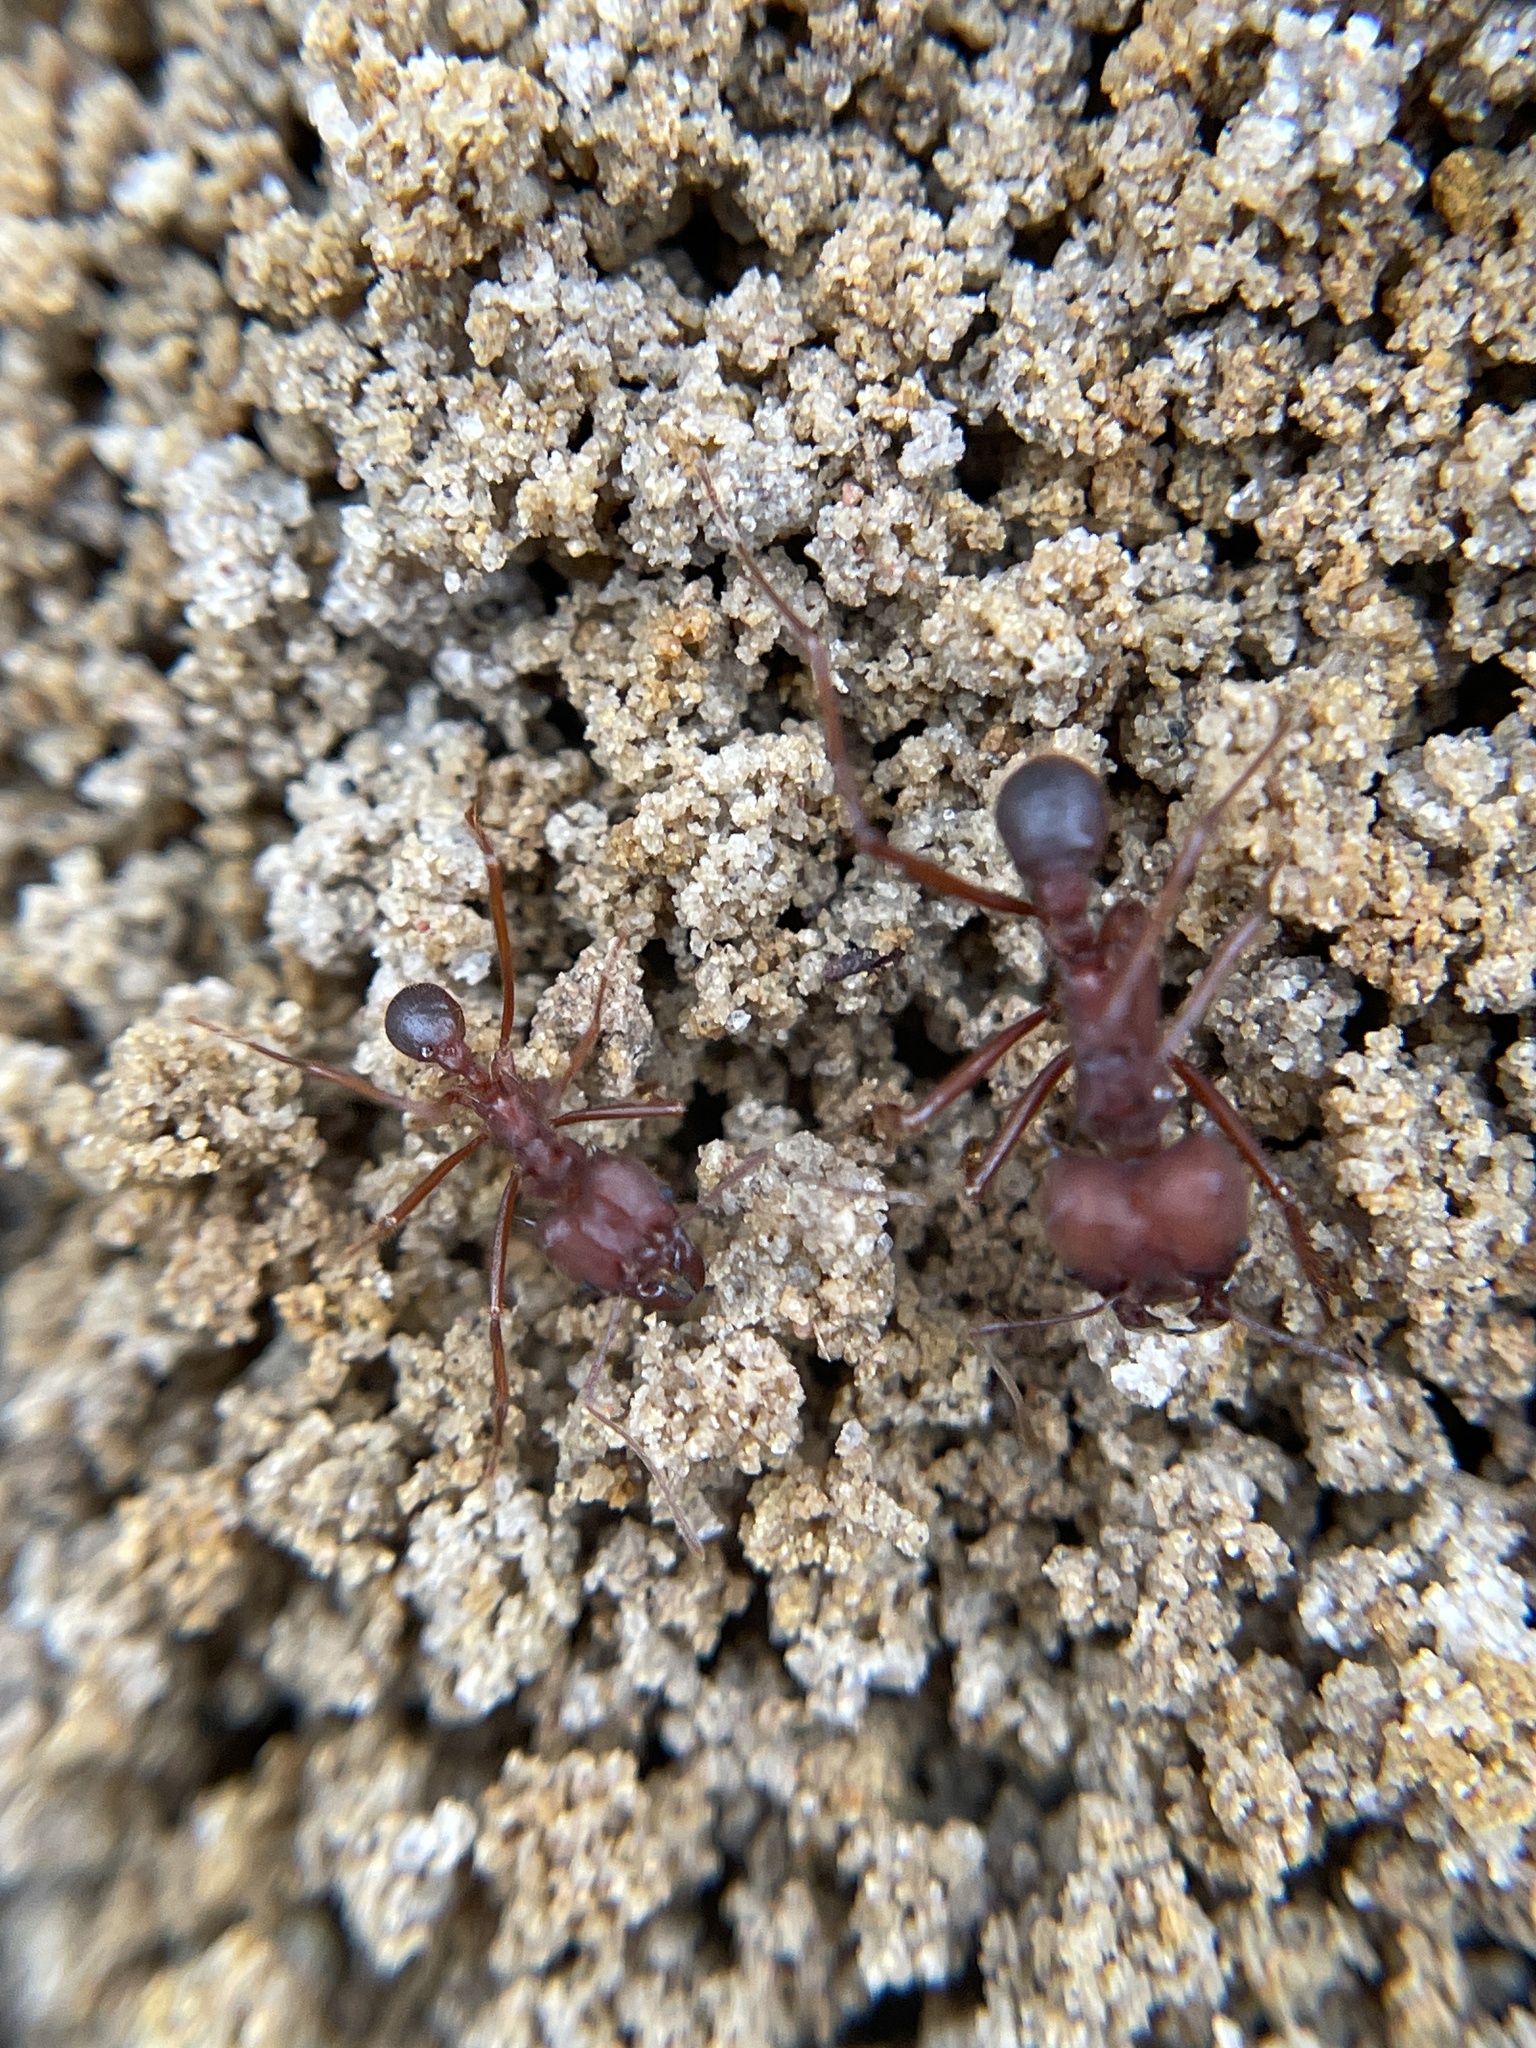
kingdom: Animalia
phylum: Arthropoda
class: Insecta
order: Hymenoptera
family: Formicidae
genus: Atta
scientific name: Atta texana
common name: Texas leafcutting ant
